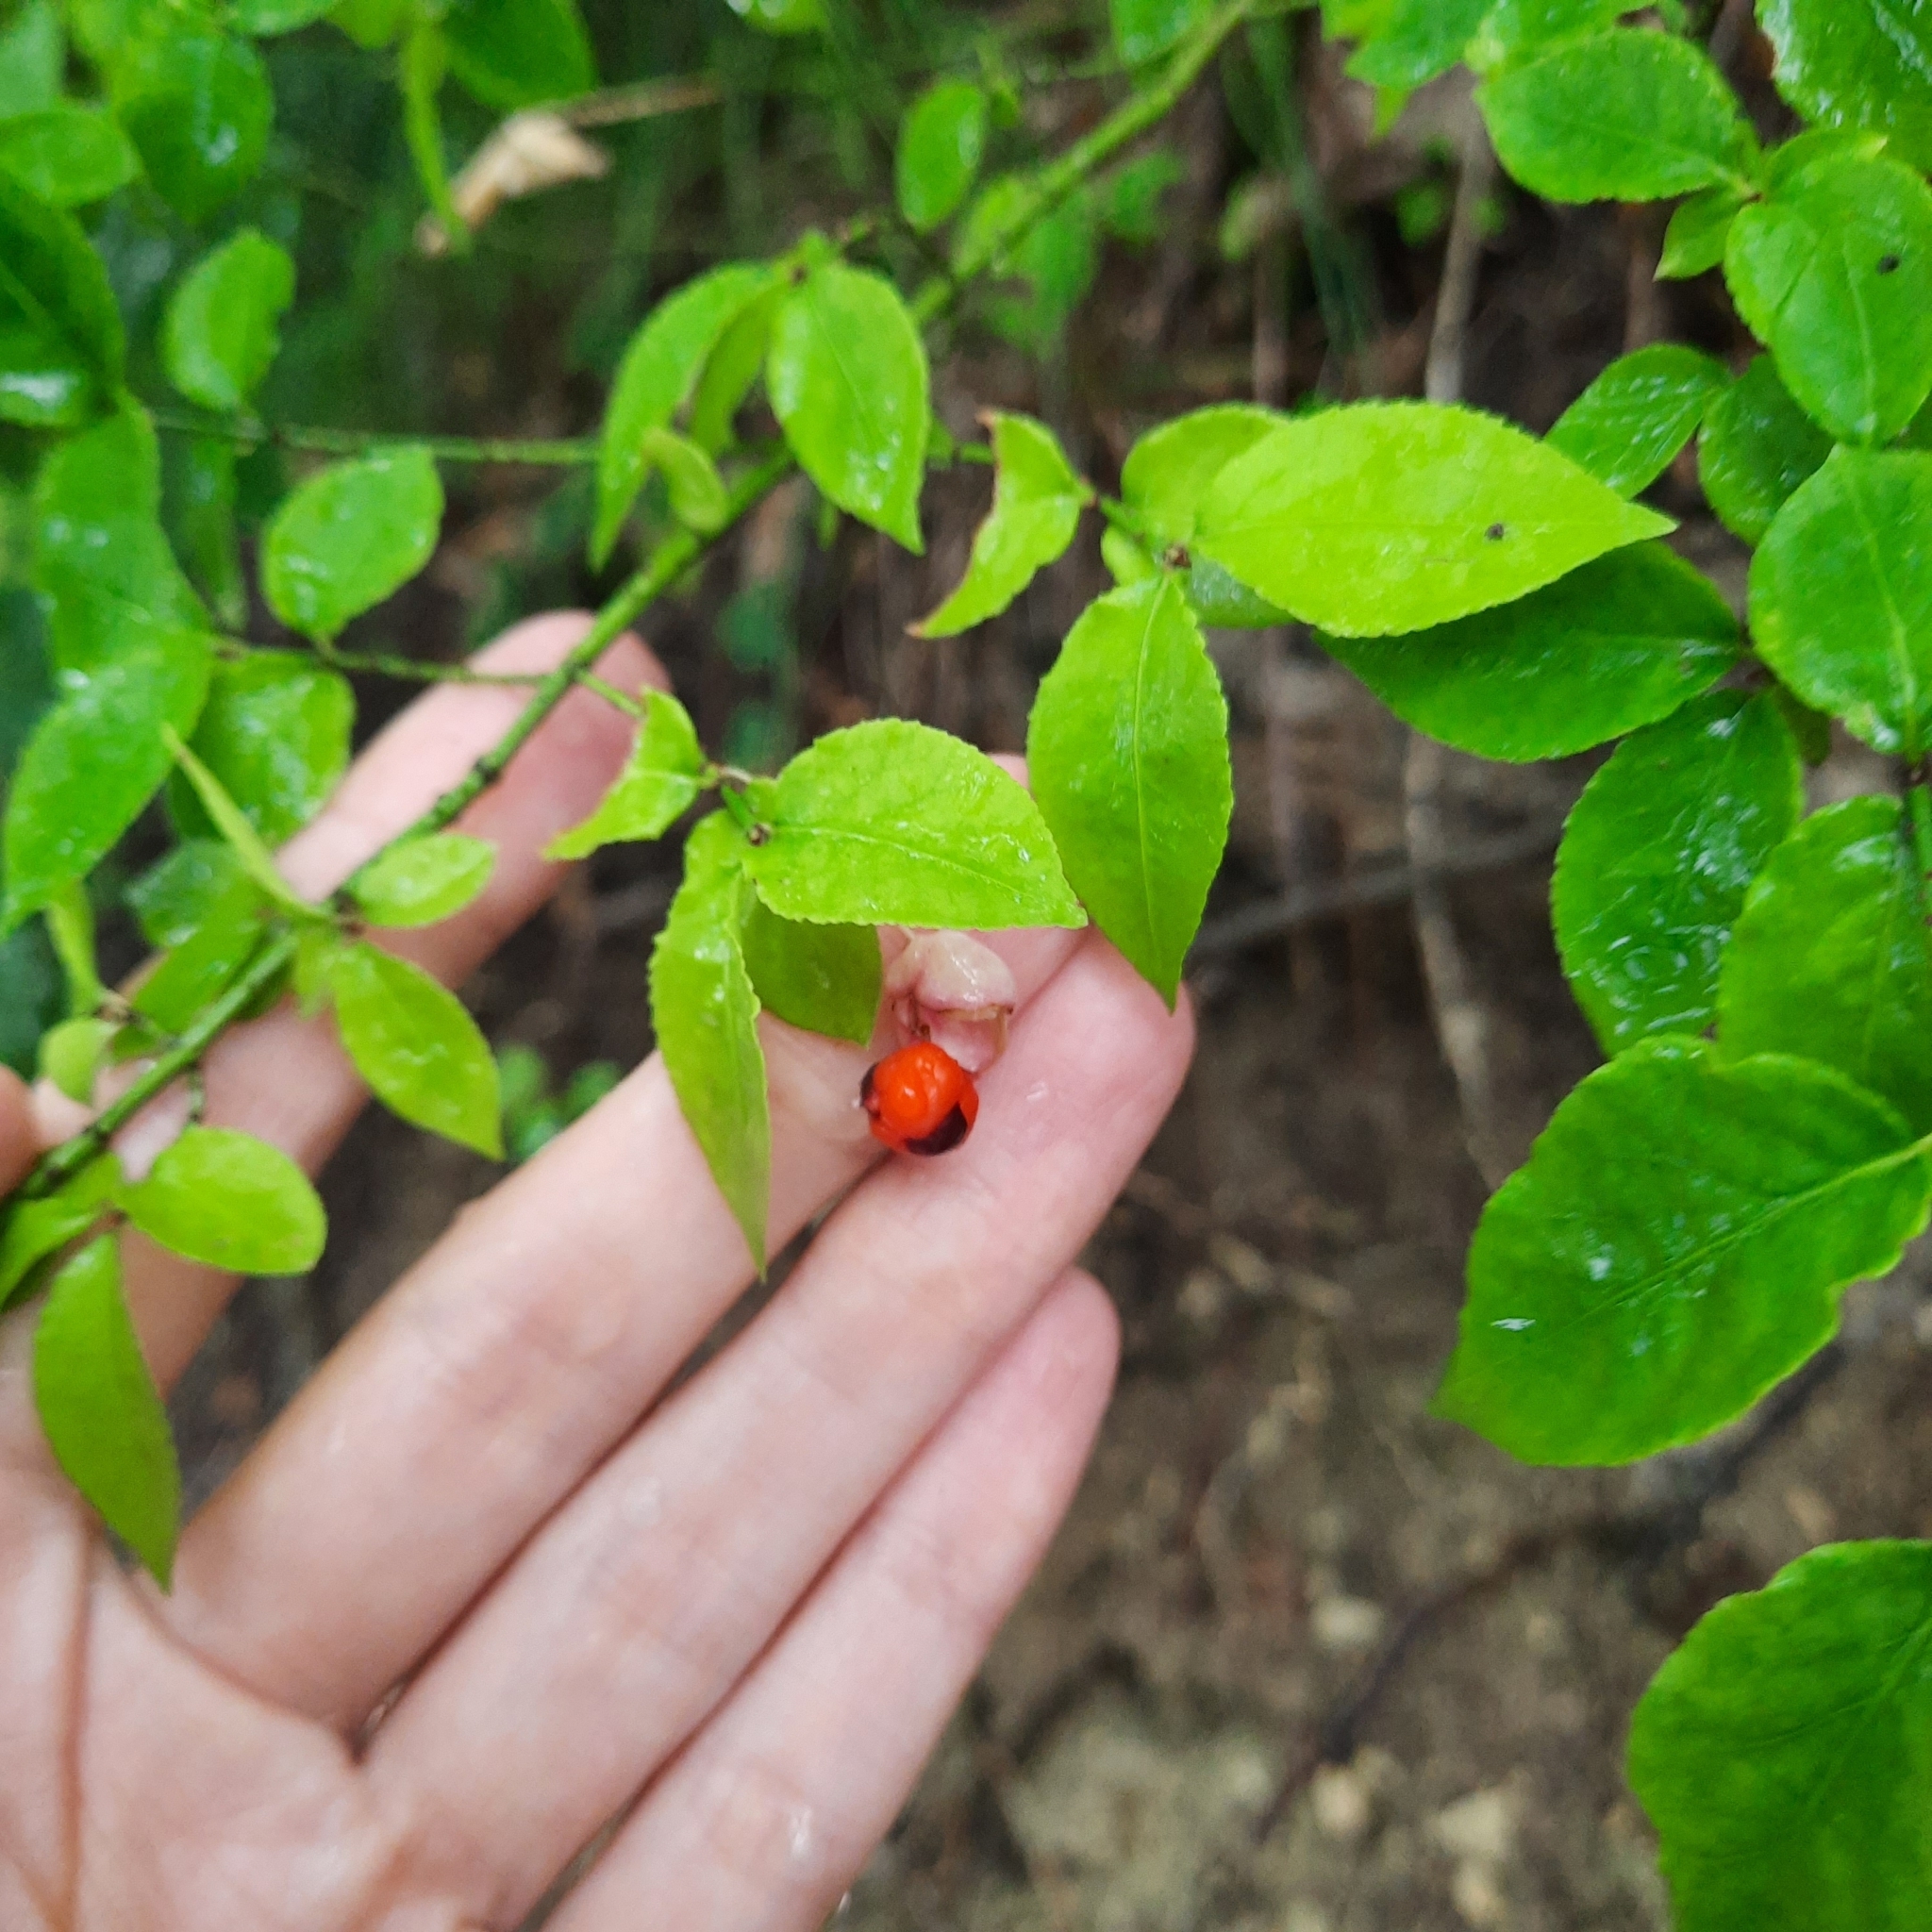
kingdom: Plantae
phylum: Tracheophyta
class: Magnoliopsida
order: Celastrales
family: Celastraceae
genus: Euonymus
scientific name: Euonymus verrucosus
